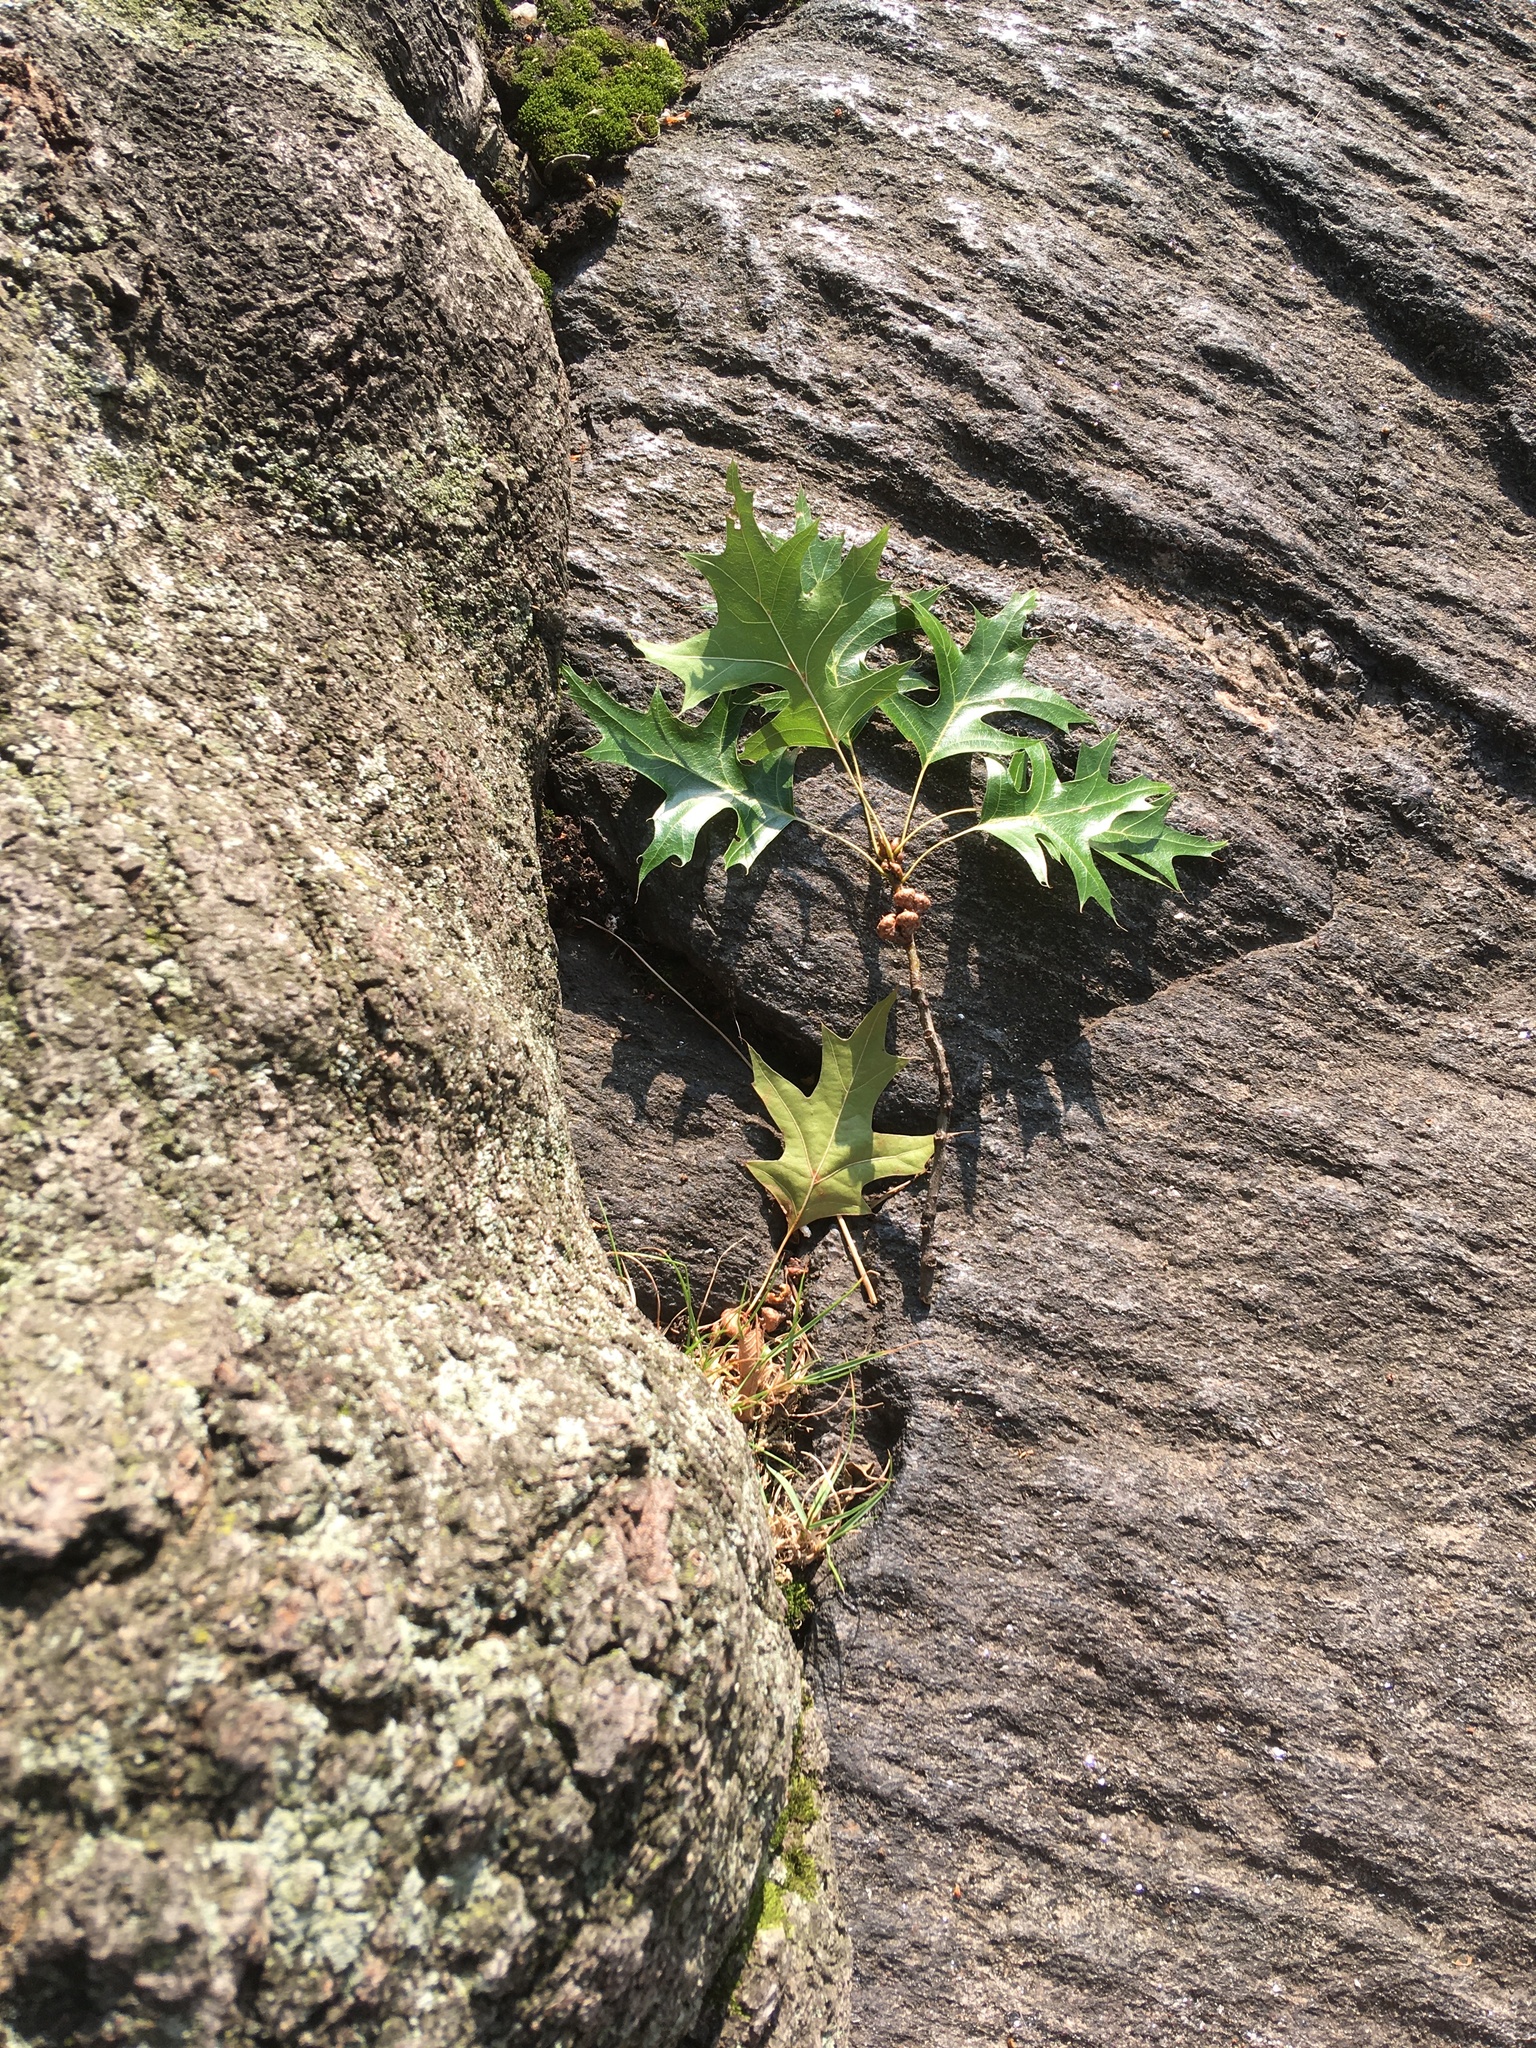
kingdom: Plantae
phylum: Tracheophyta
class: Magnoliopsida
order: Fagales
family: Fagaceae
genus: Quercus
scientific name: Quercus palustris
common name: Pin oak
